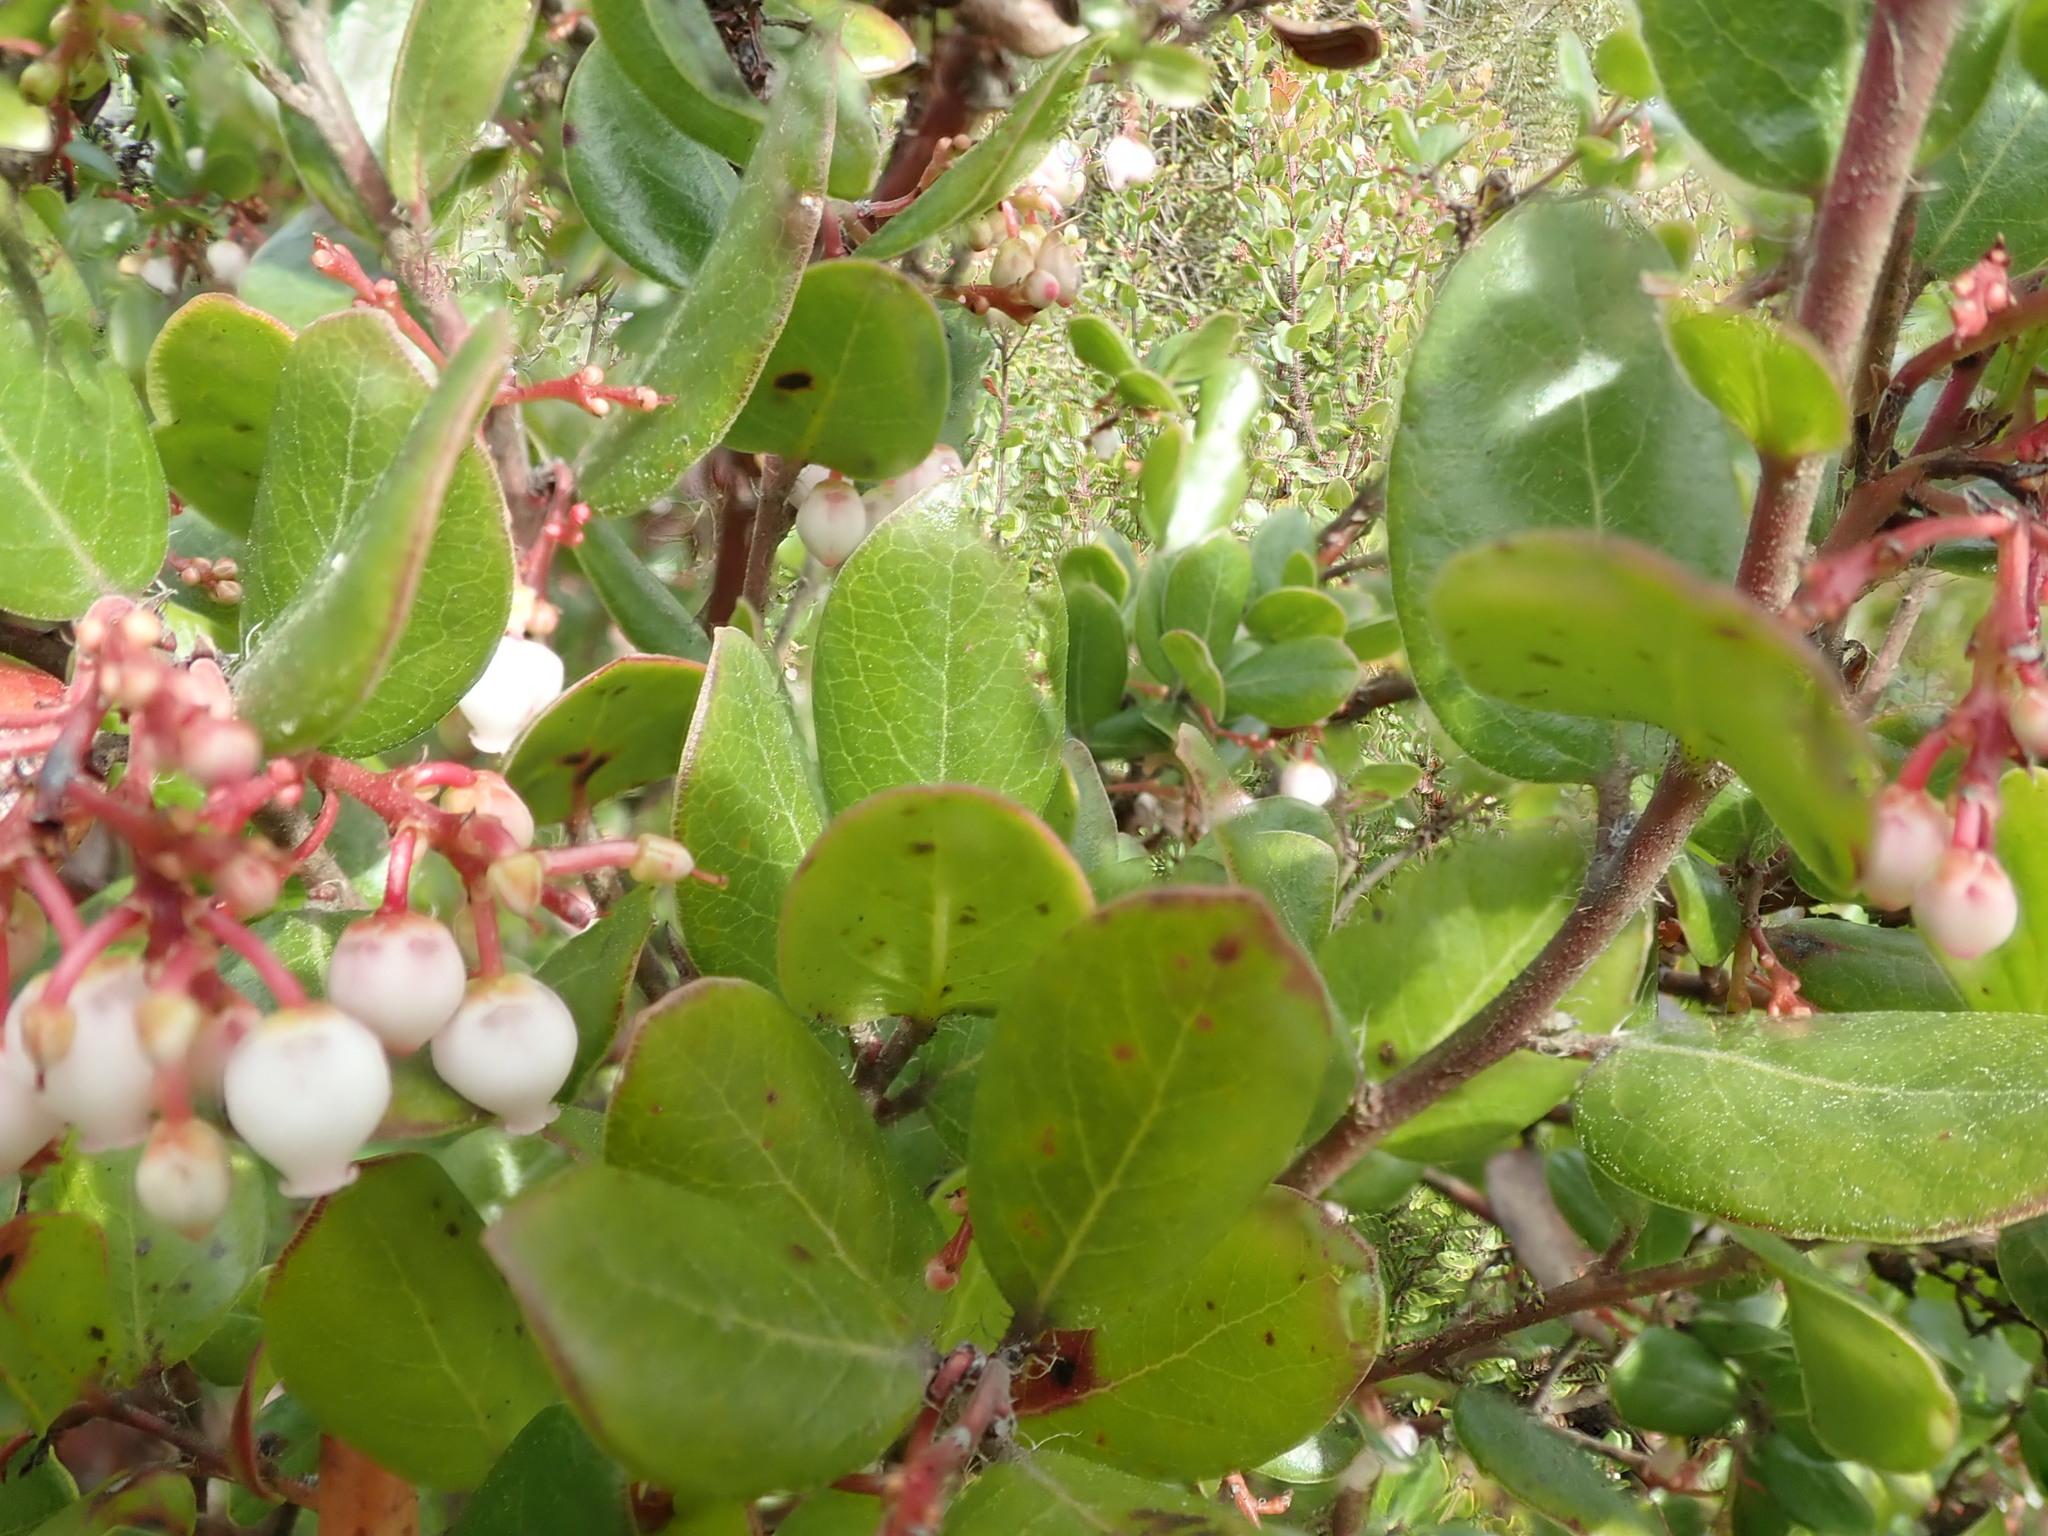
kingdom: Plantae
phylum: Tracheophyta
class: Magnoliopsida
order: Ericales
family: Ericaceae
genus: Arctostaphylos
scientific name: Arctostaphylos nummularia
